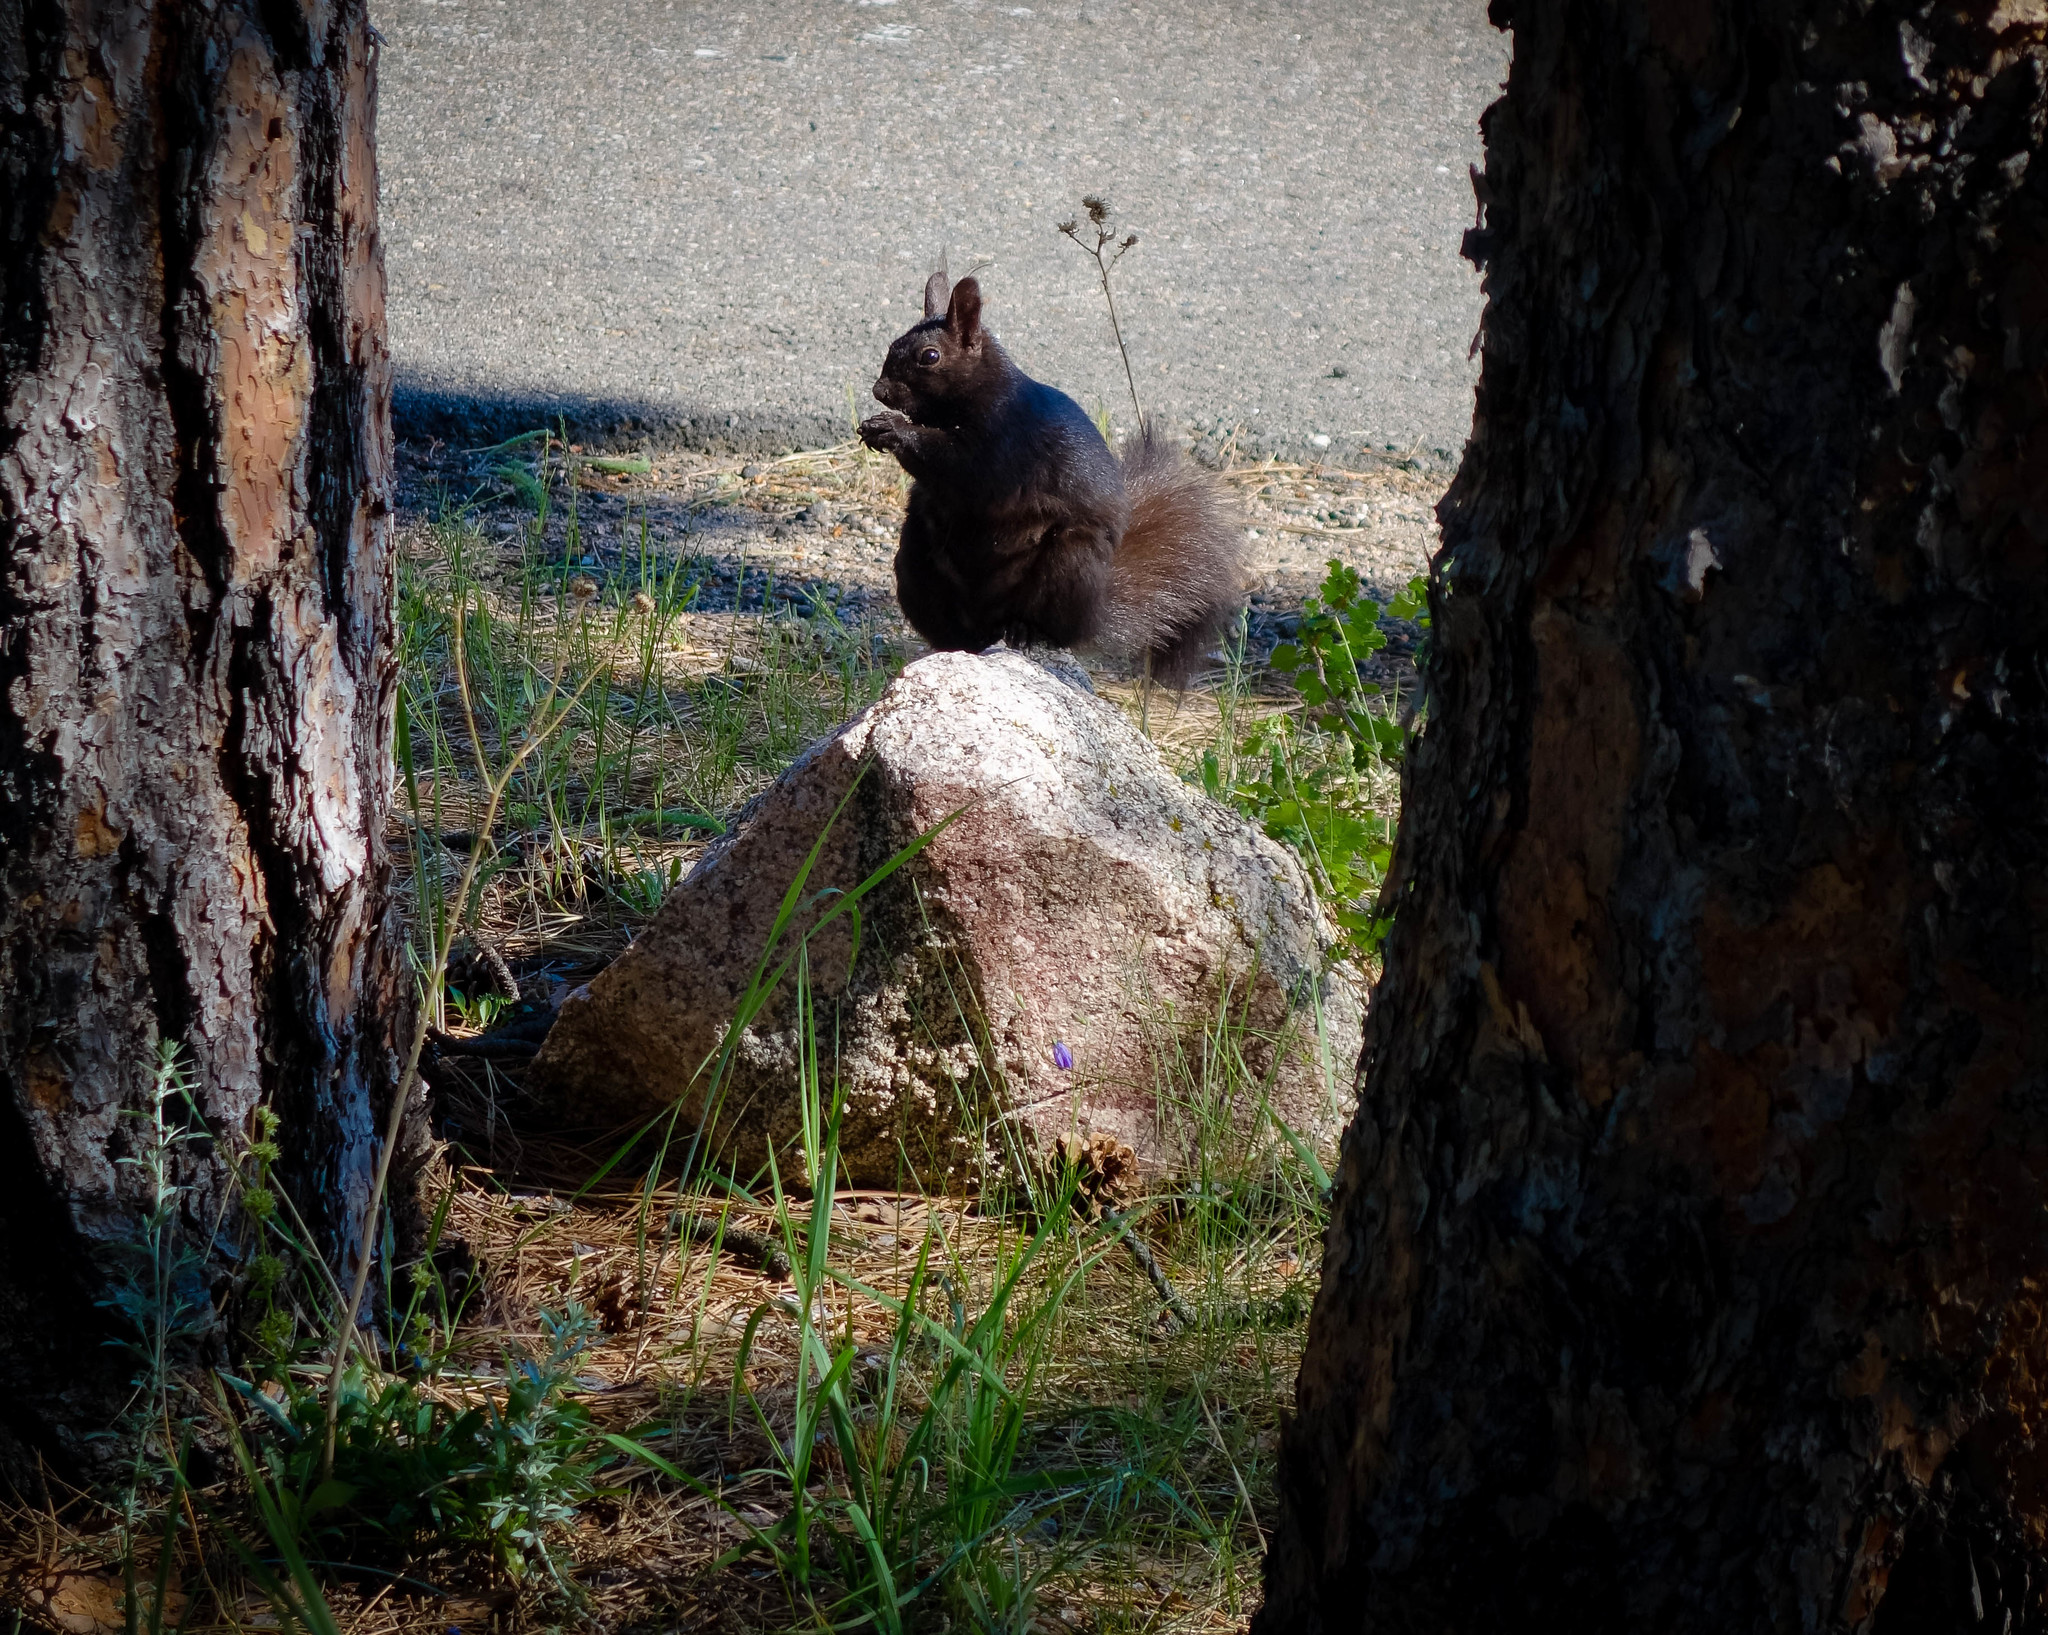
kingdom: Animalia
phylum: Chordata
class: Mammalia
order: Rodentia
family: Sciuridae
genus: Sciurus
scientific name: Sciurus aberti
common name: Abert's squirrel
